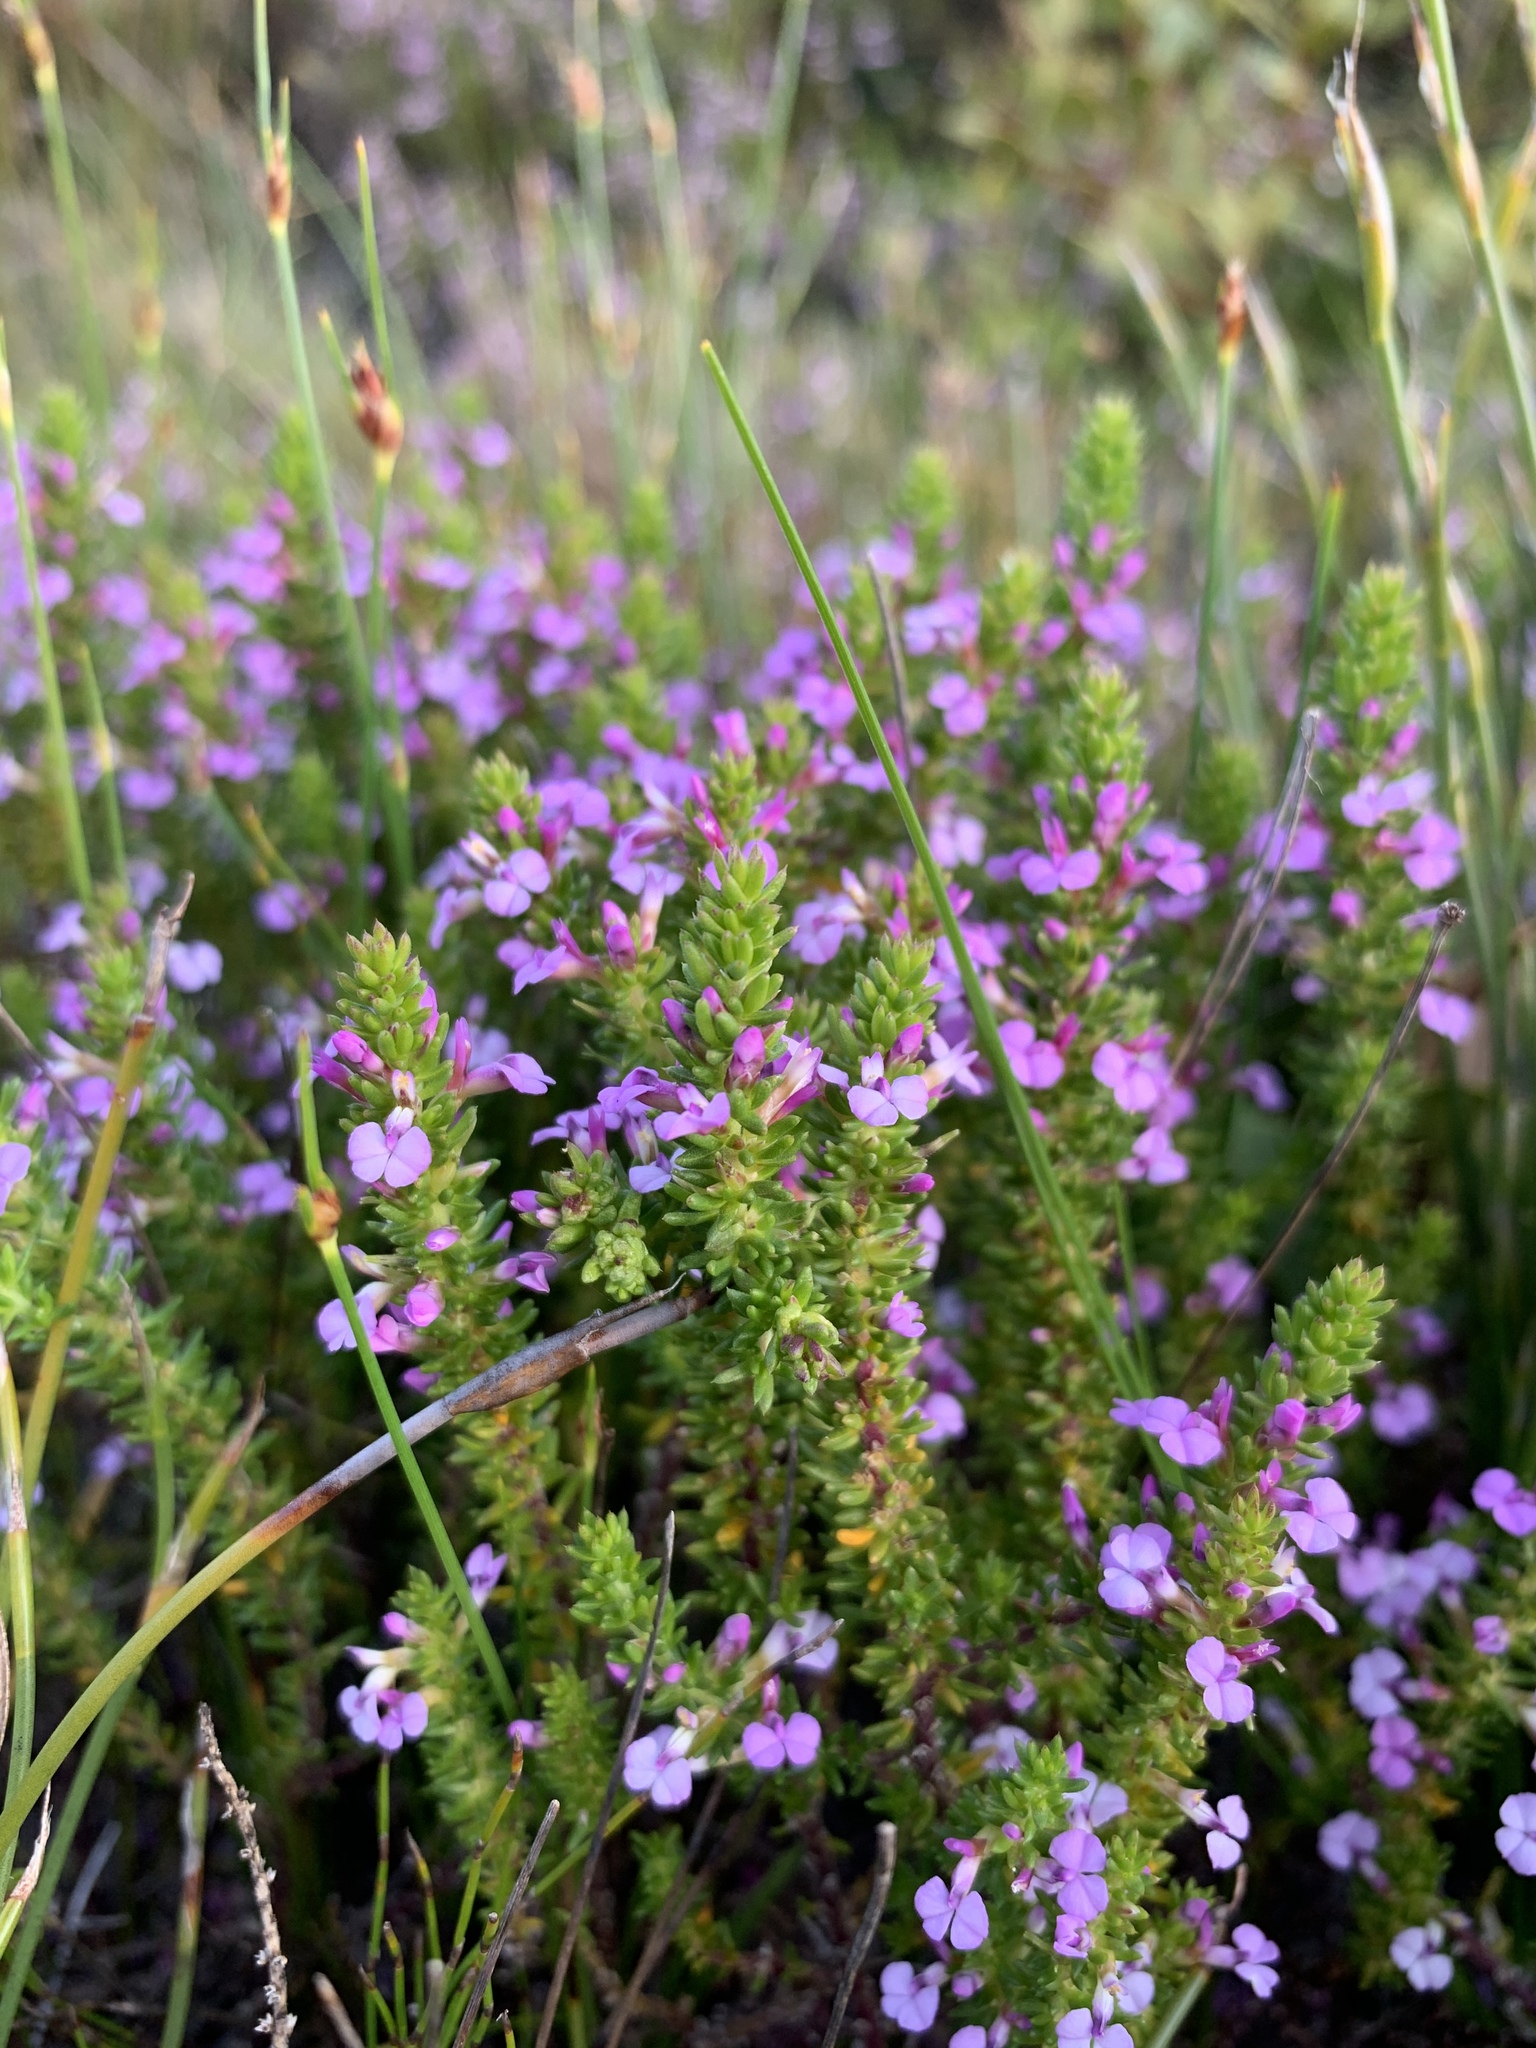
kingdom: Plantae
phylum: Tracheophyta
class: Magnoliopsida
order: Fabales
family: Polygalaceae
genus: Muraltia
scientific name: Muraltia satureioides
